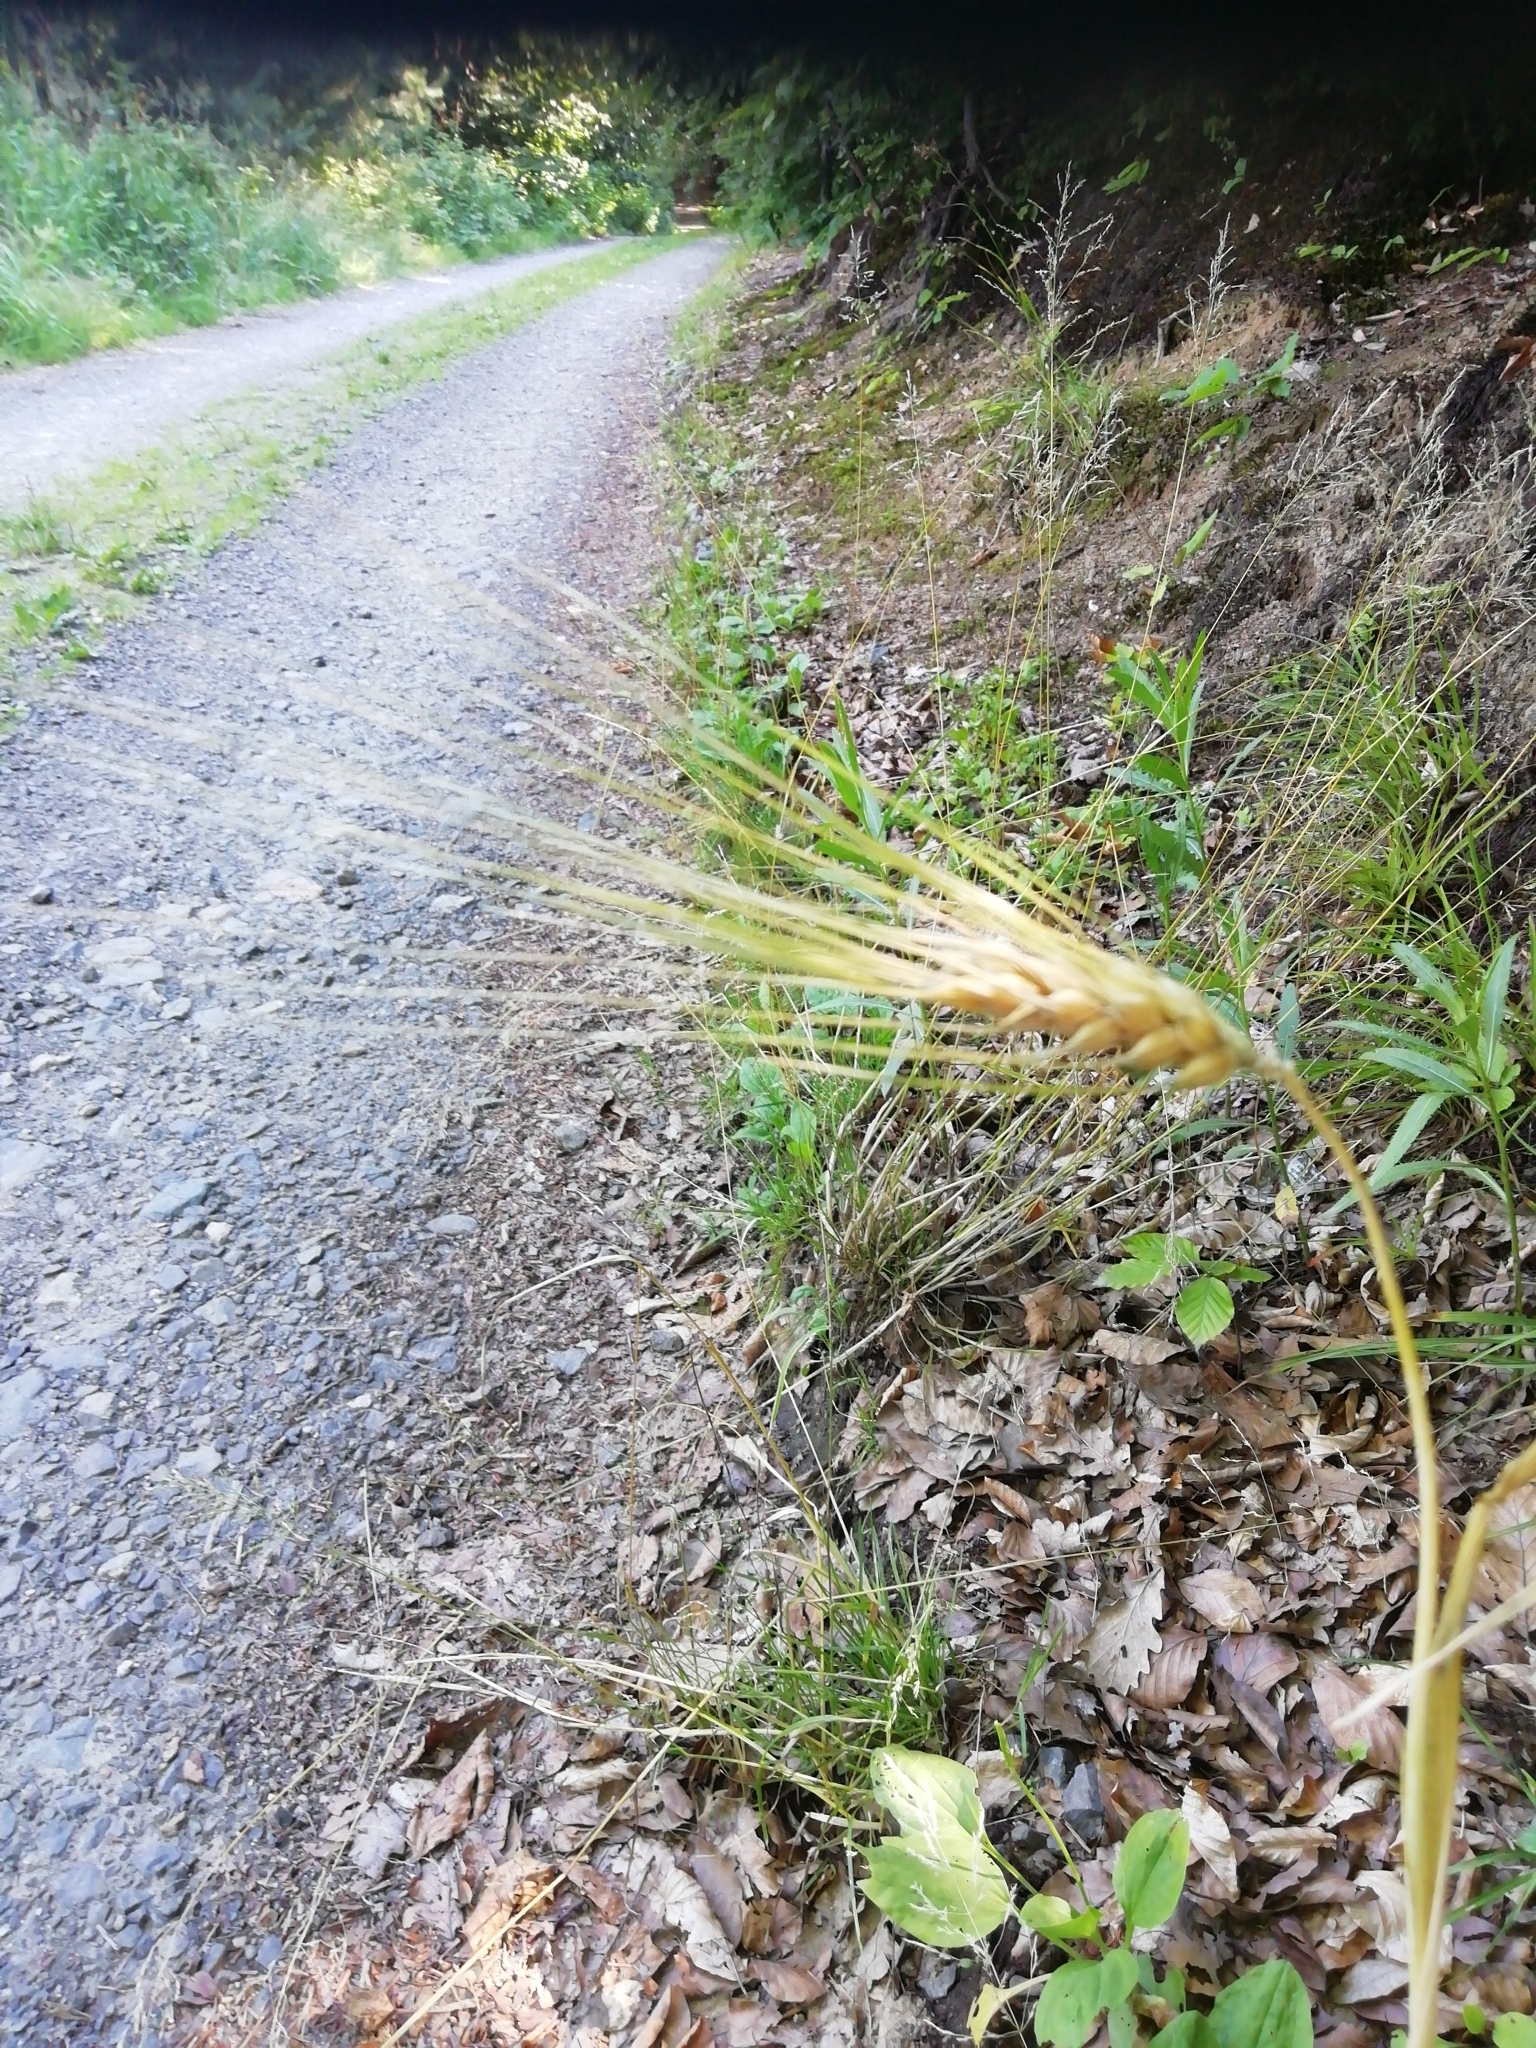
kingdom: Plantae
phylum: Tracheophyta
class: Liliopsida
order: Poales
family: Poaceae
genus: Hordeum
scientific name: Hordeum vulgare
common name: Common barley
